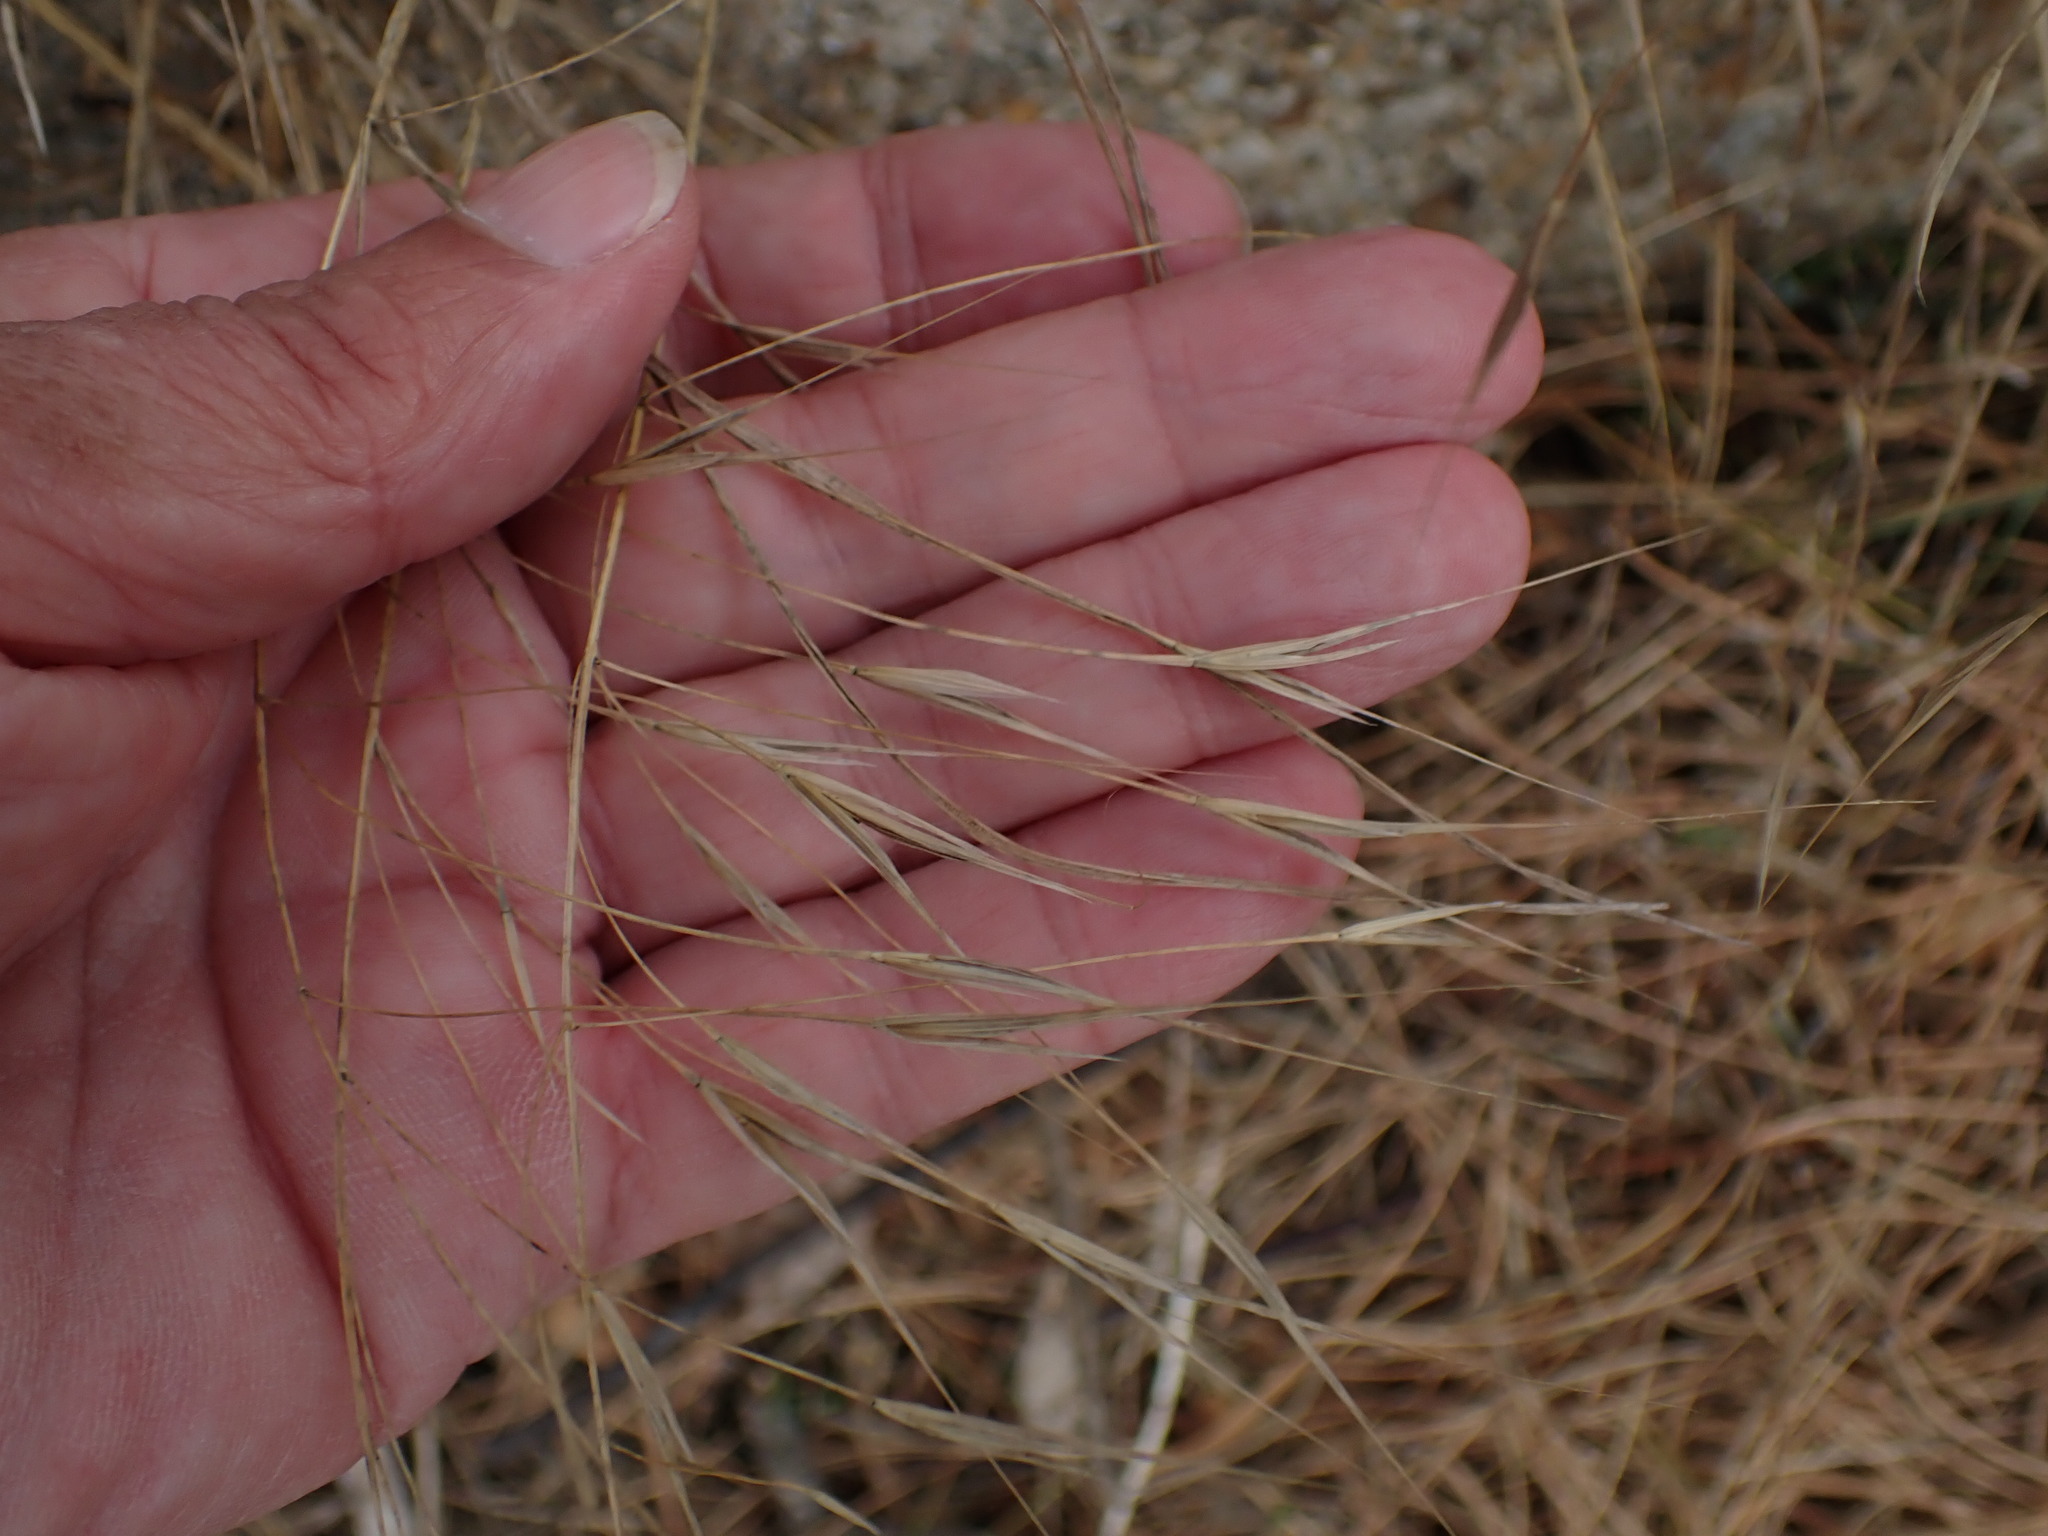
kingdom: Plantae
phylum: Tracheophyta
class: Liliopsida
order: Poales
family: Poaceae
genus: Bromus
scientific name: Bromus sterilis
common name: Poverty brome
